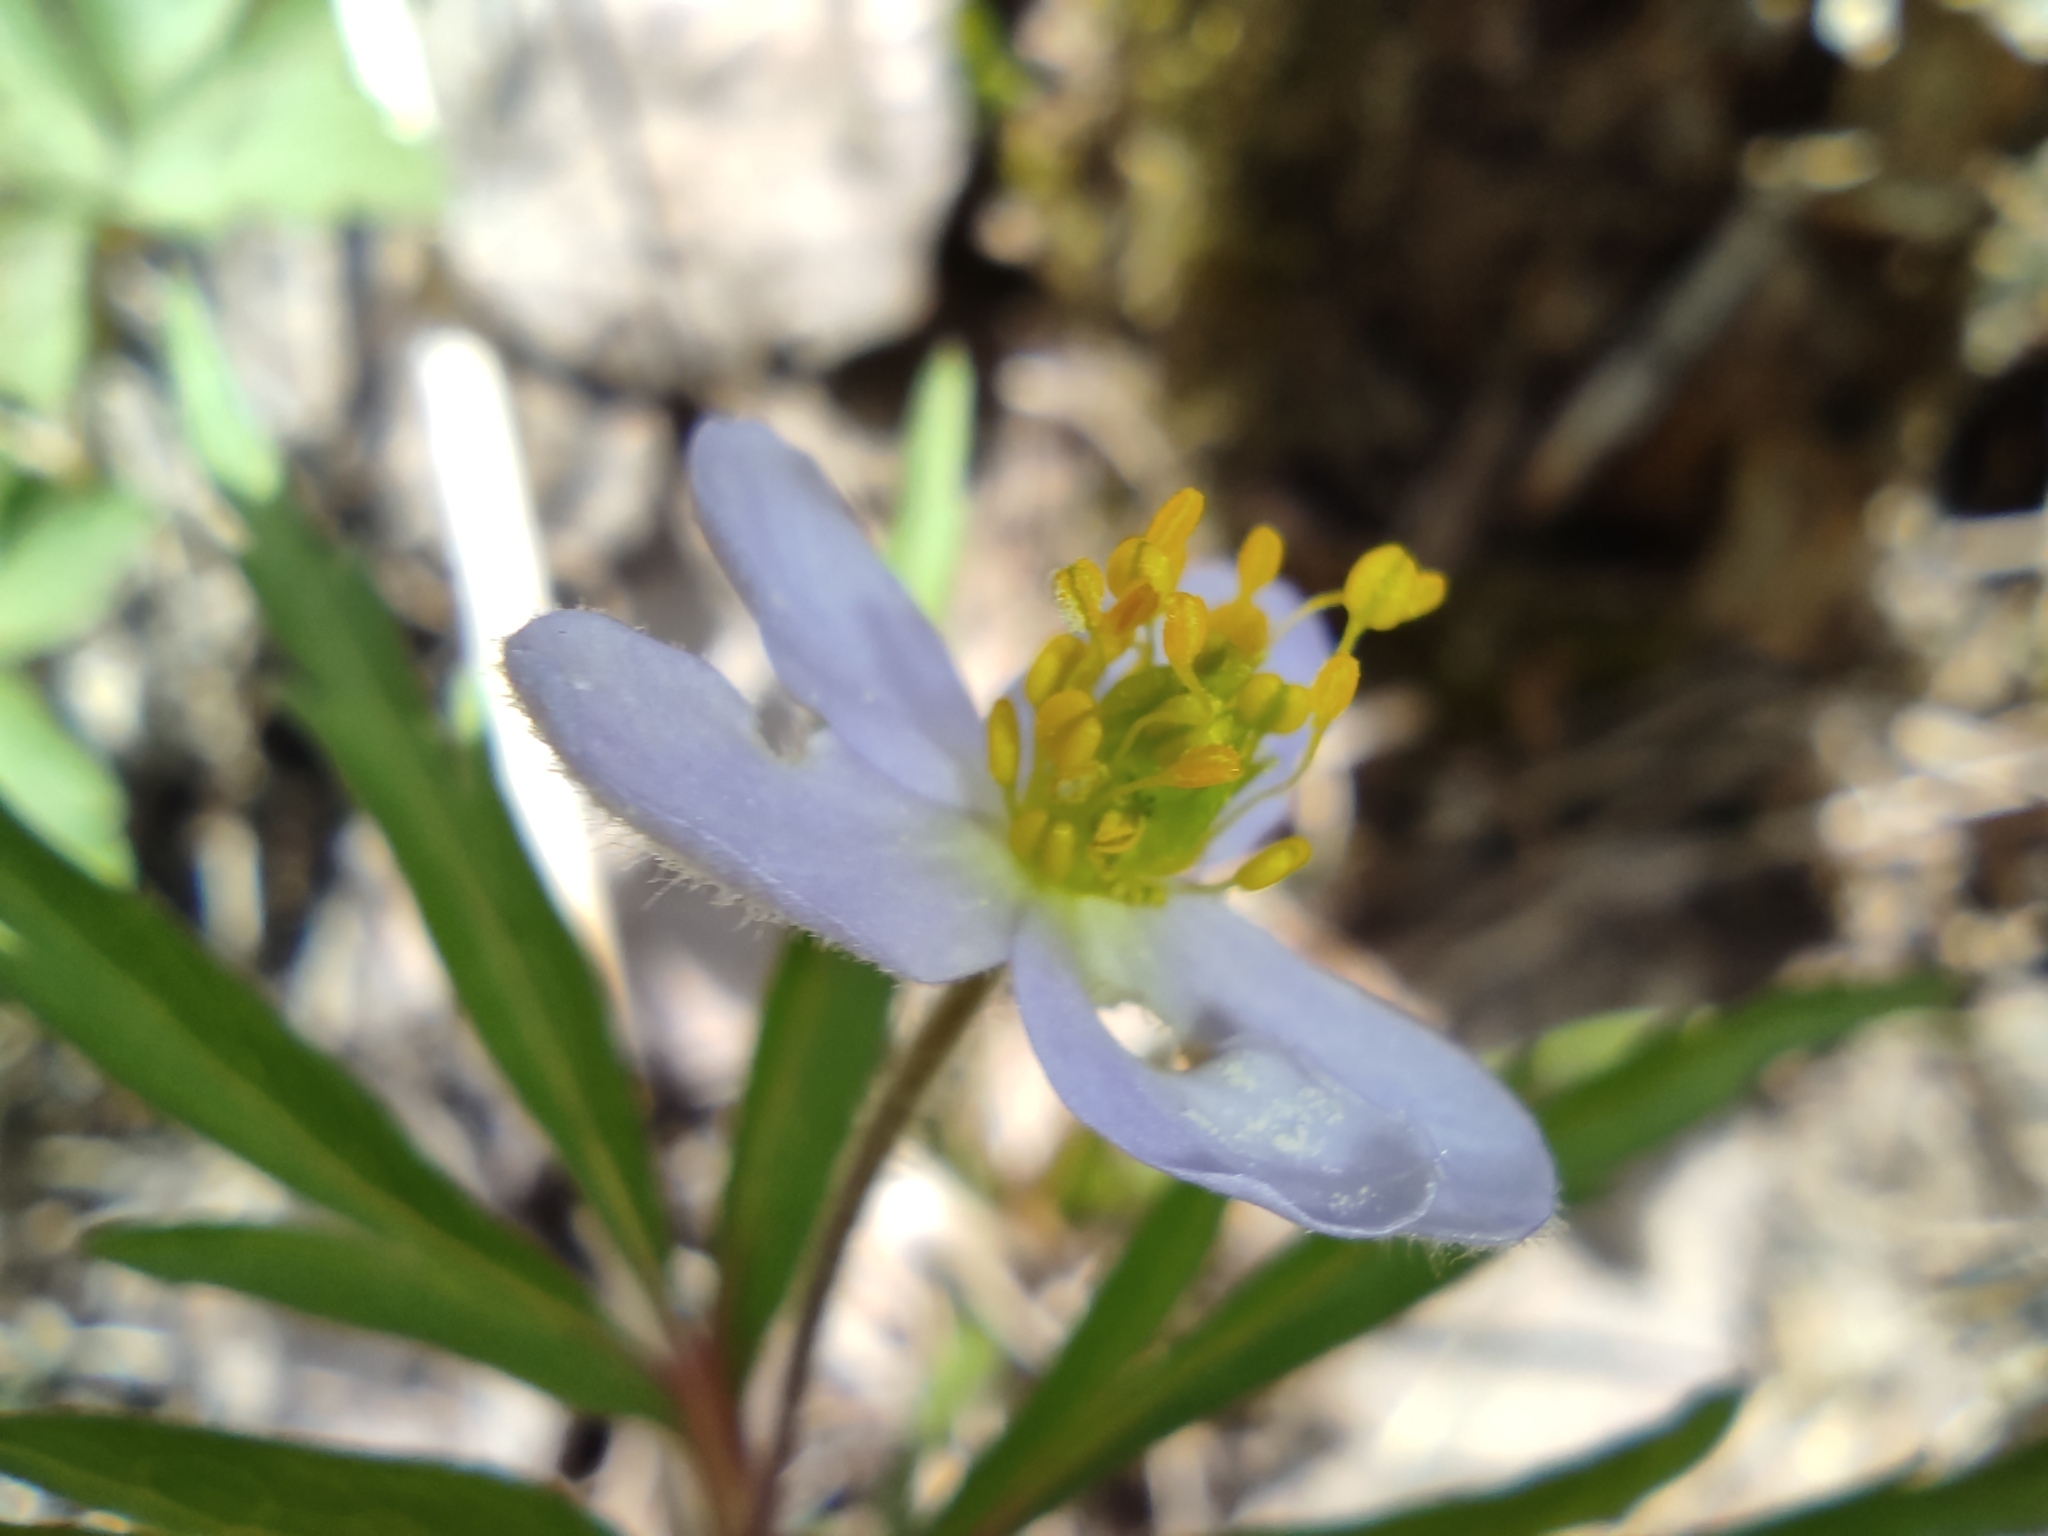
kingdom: Plantae
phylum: Tracheophyta
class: Magnoliopsida
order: Ranunculales
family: Ranunculaceae
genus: Anemone
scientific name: Anemone caerulea
